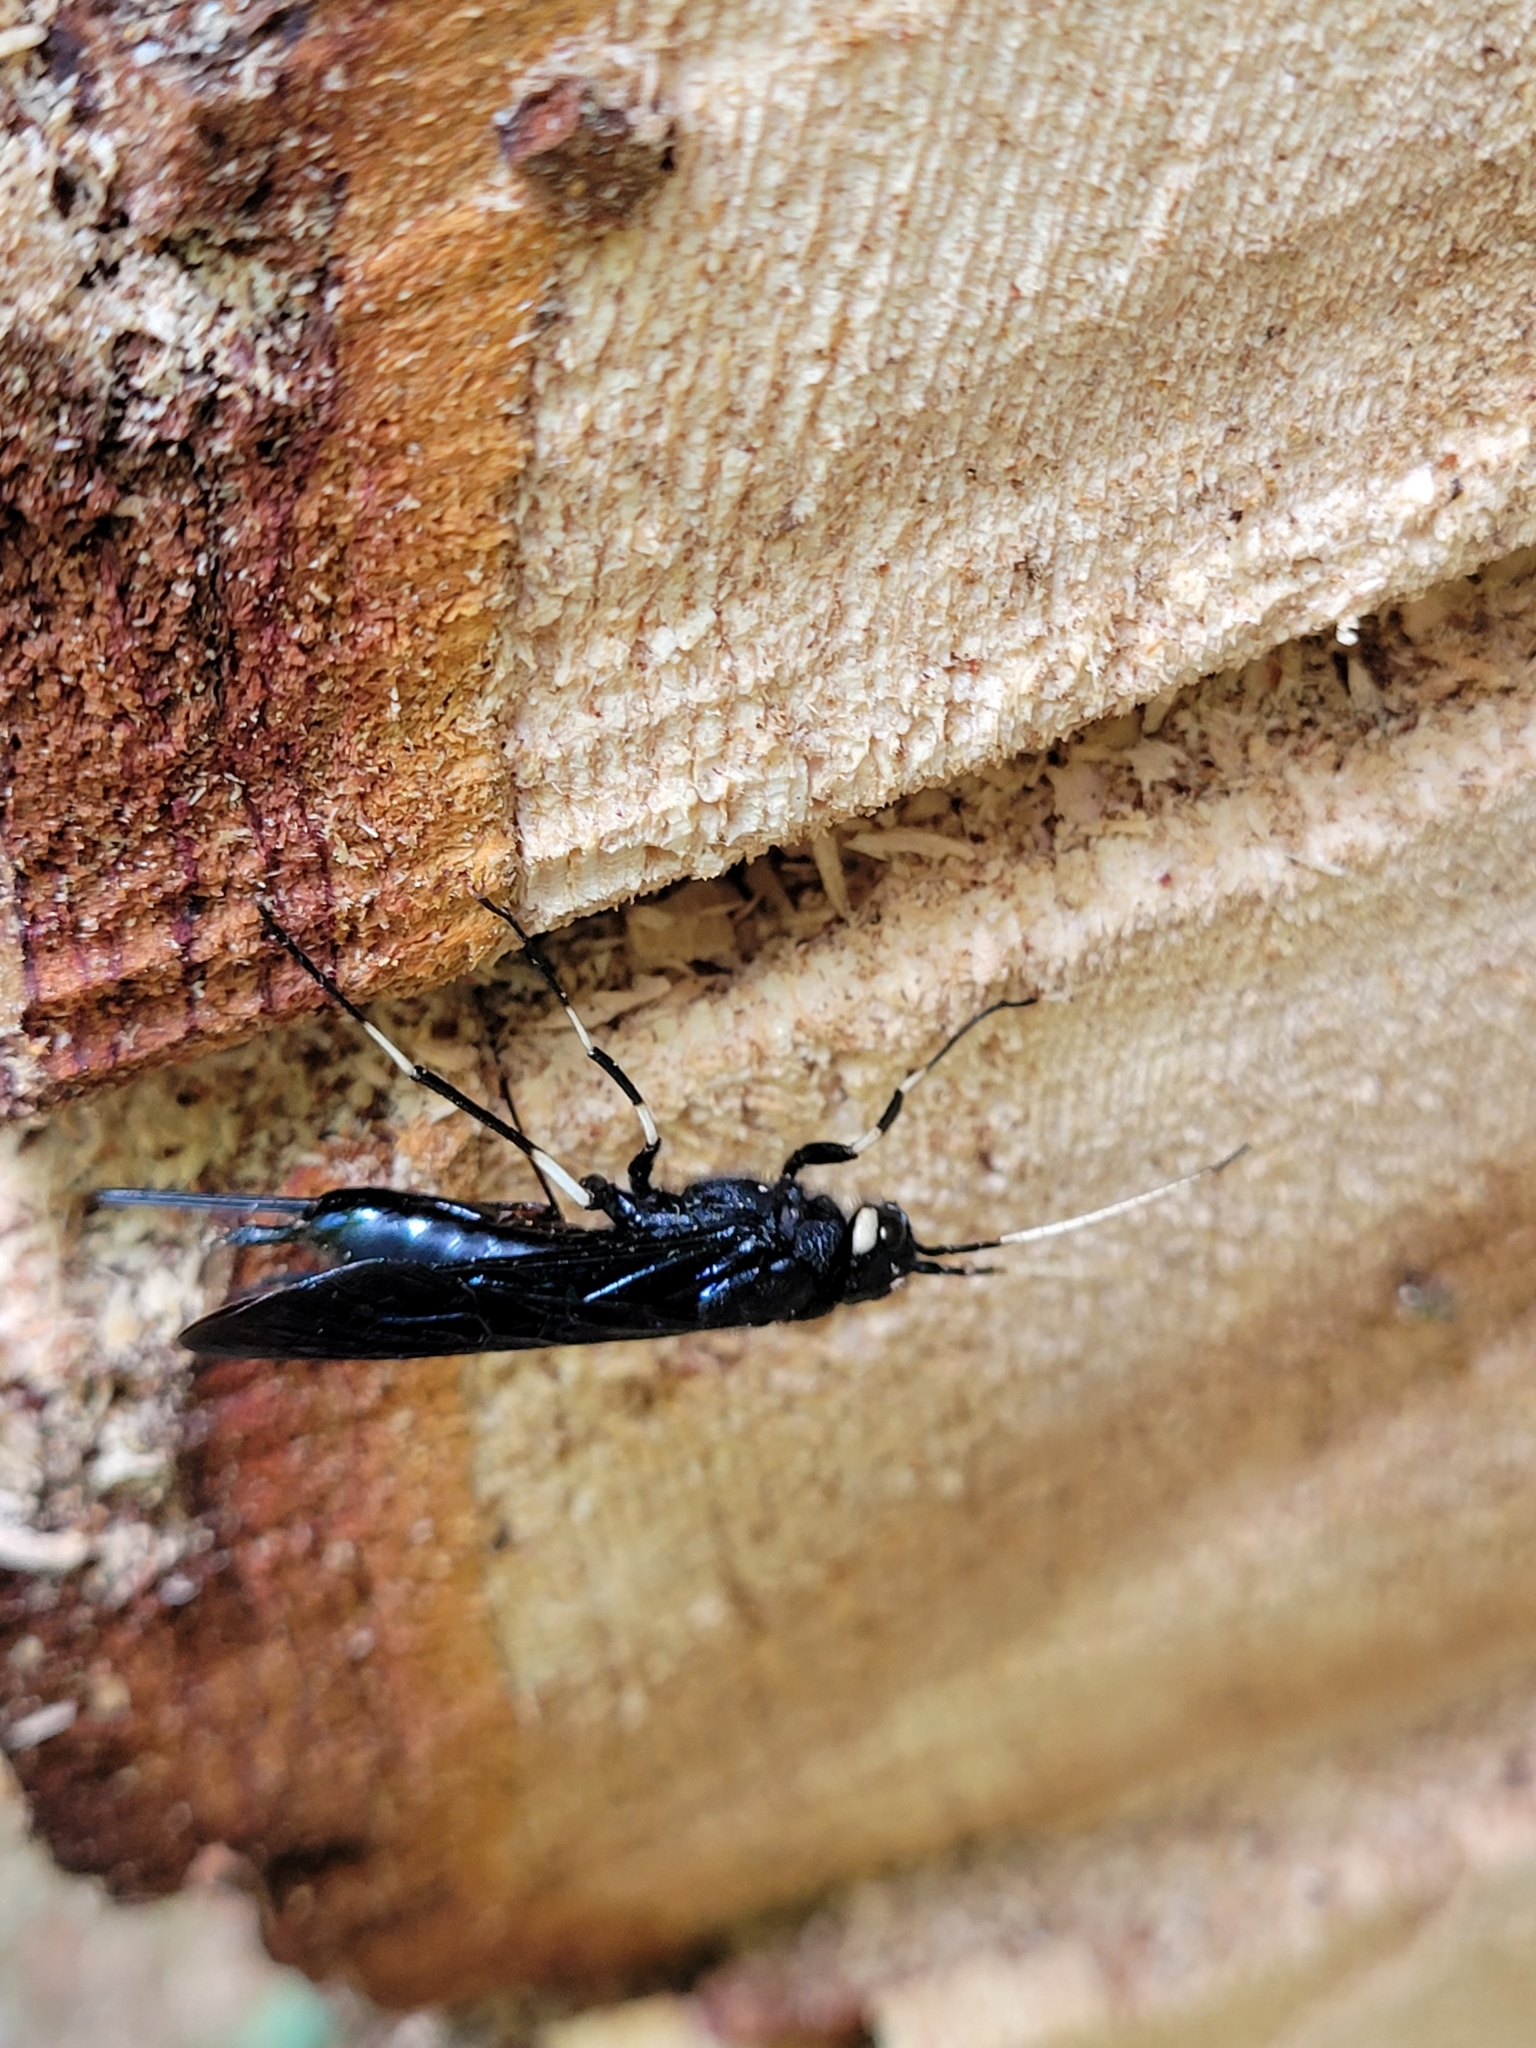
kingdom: Animalia
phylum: Arthropoda
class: Insecta
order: Hymenoptera
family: Siricidae
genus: Urocerus
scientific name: Urocerus albicornis
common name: White-horned horntail
